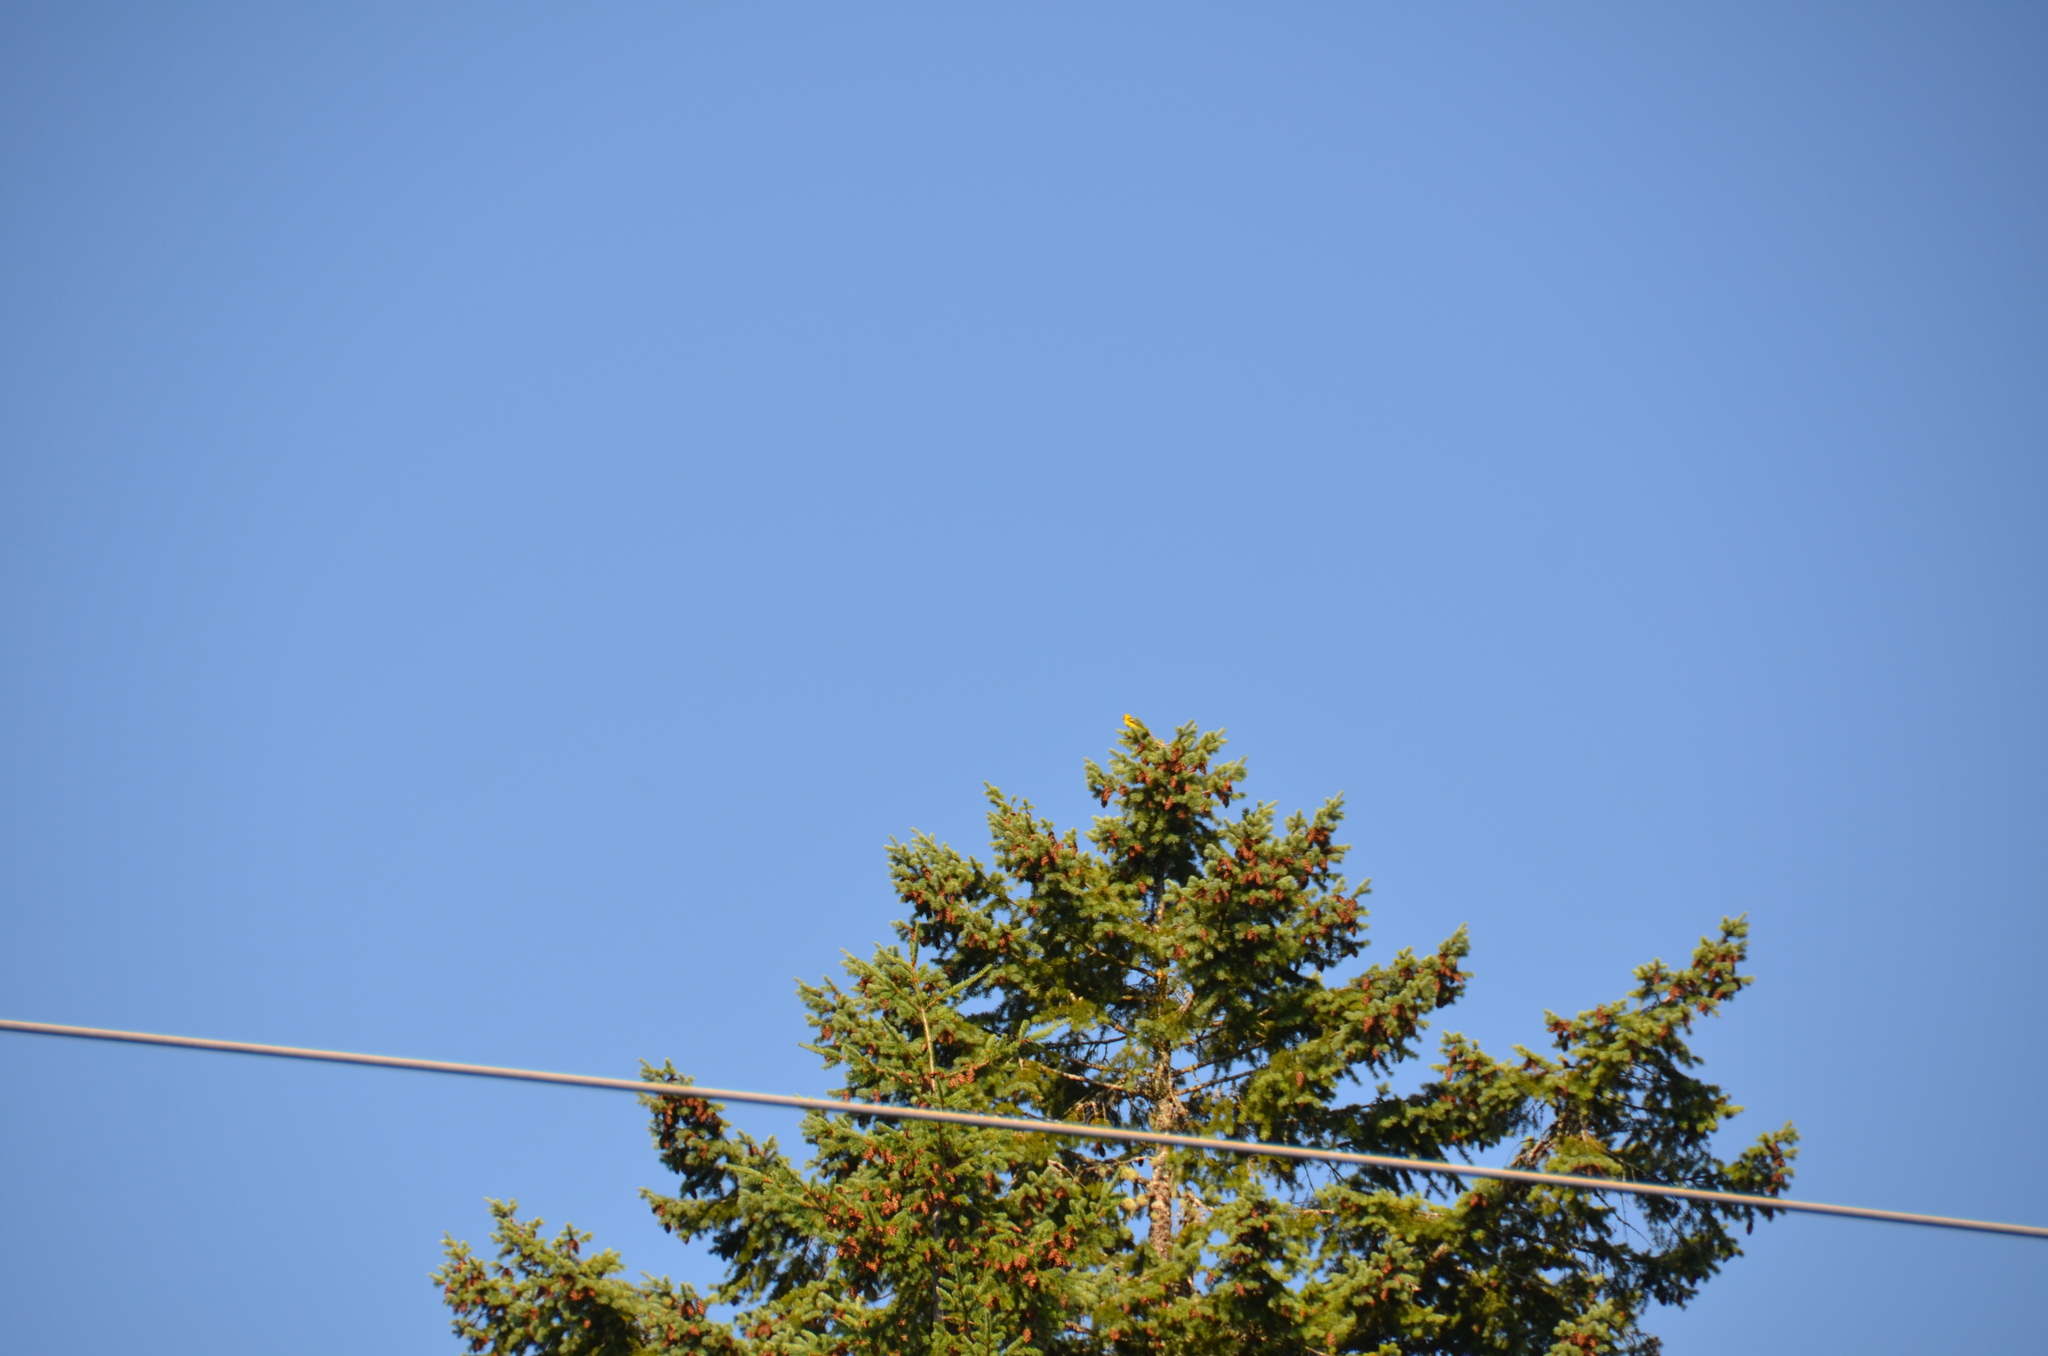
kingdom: Animalia
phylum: Chordata
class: Aves
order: Passeriformes
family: Cardinalidae
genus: Piranga
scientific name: Piranga ludoviciana
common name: Western tanager
